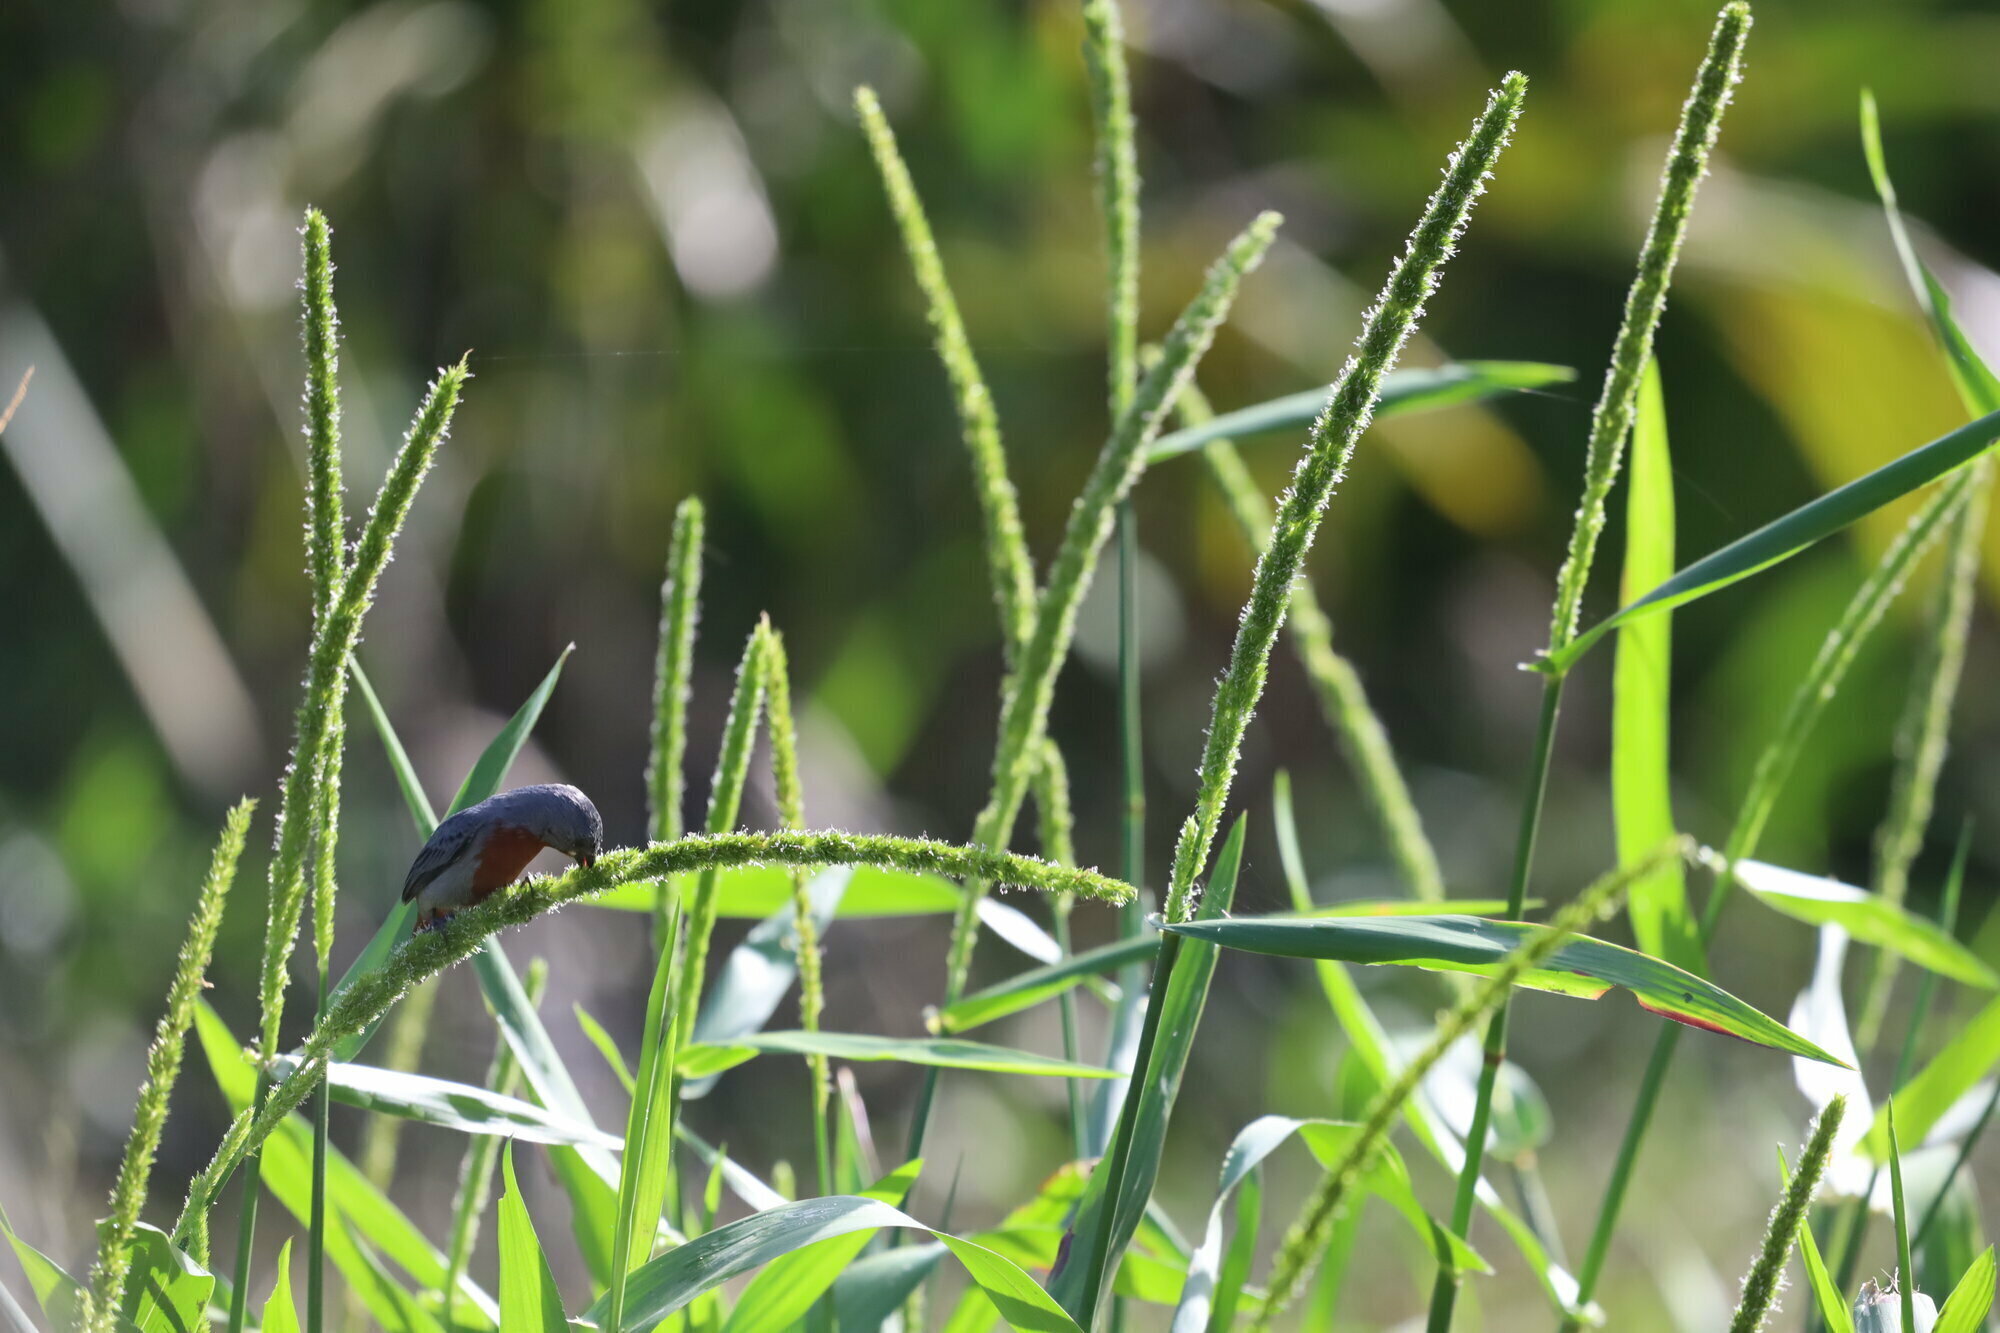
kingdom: Animalia
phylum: Chordata
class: Aves
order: Passeriformes
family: Thraupidae
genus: Sporophila
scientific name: Sporophila castaneiventris
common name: Chestnut-bellied seedeater
